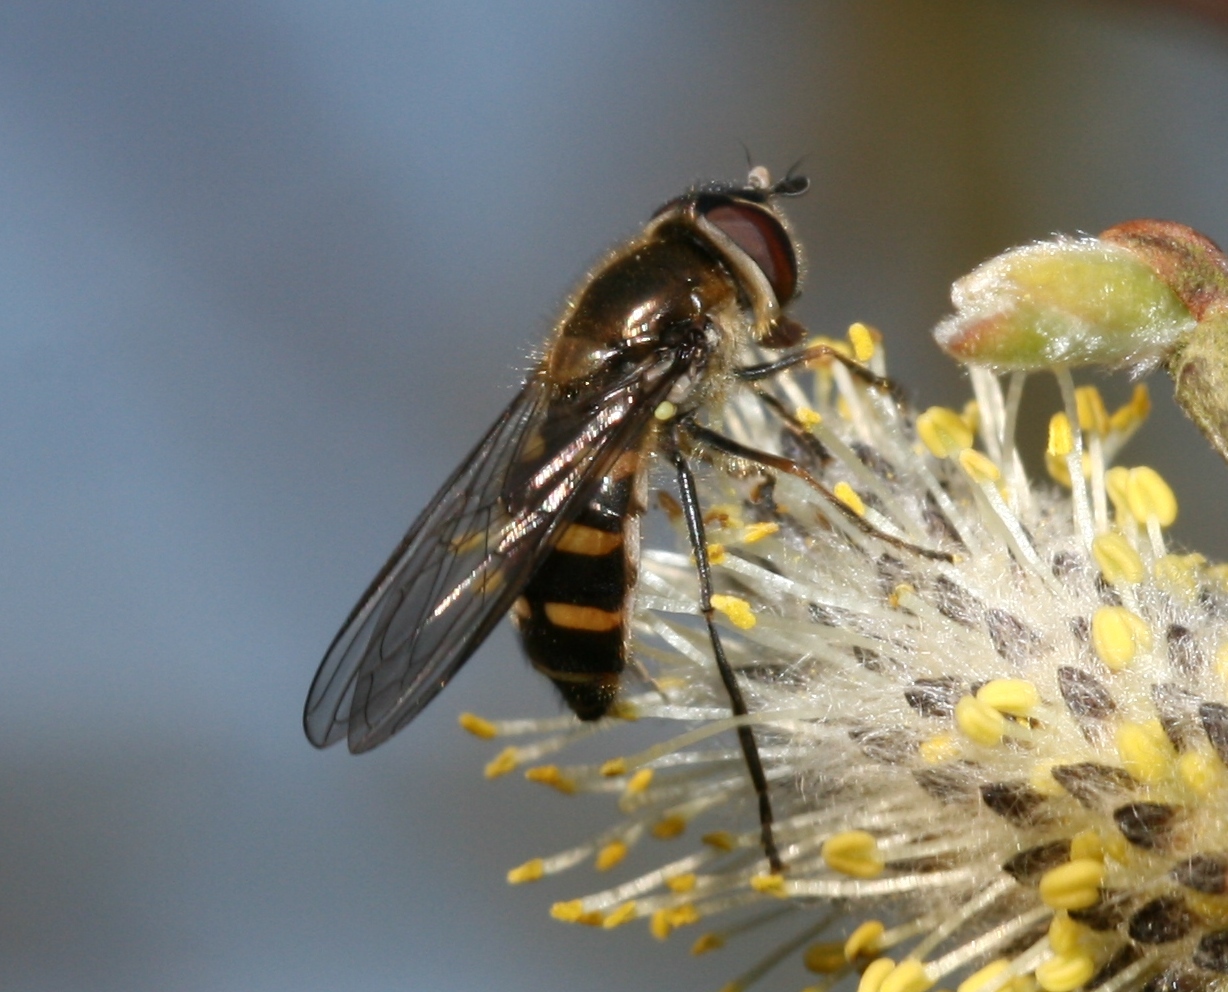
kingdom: Animalia
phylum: Arthropoda
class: Insecta
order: Diptera
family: Syrphidae
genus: Melangyna
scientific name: Melangyna lasiophthalma
